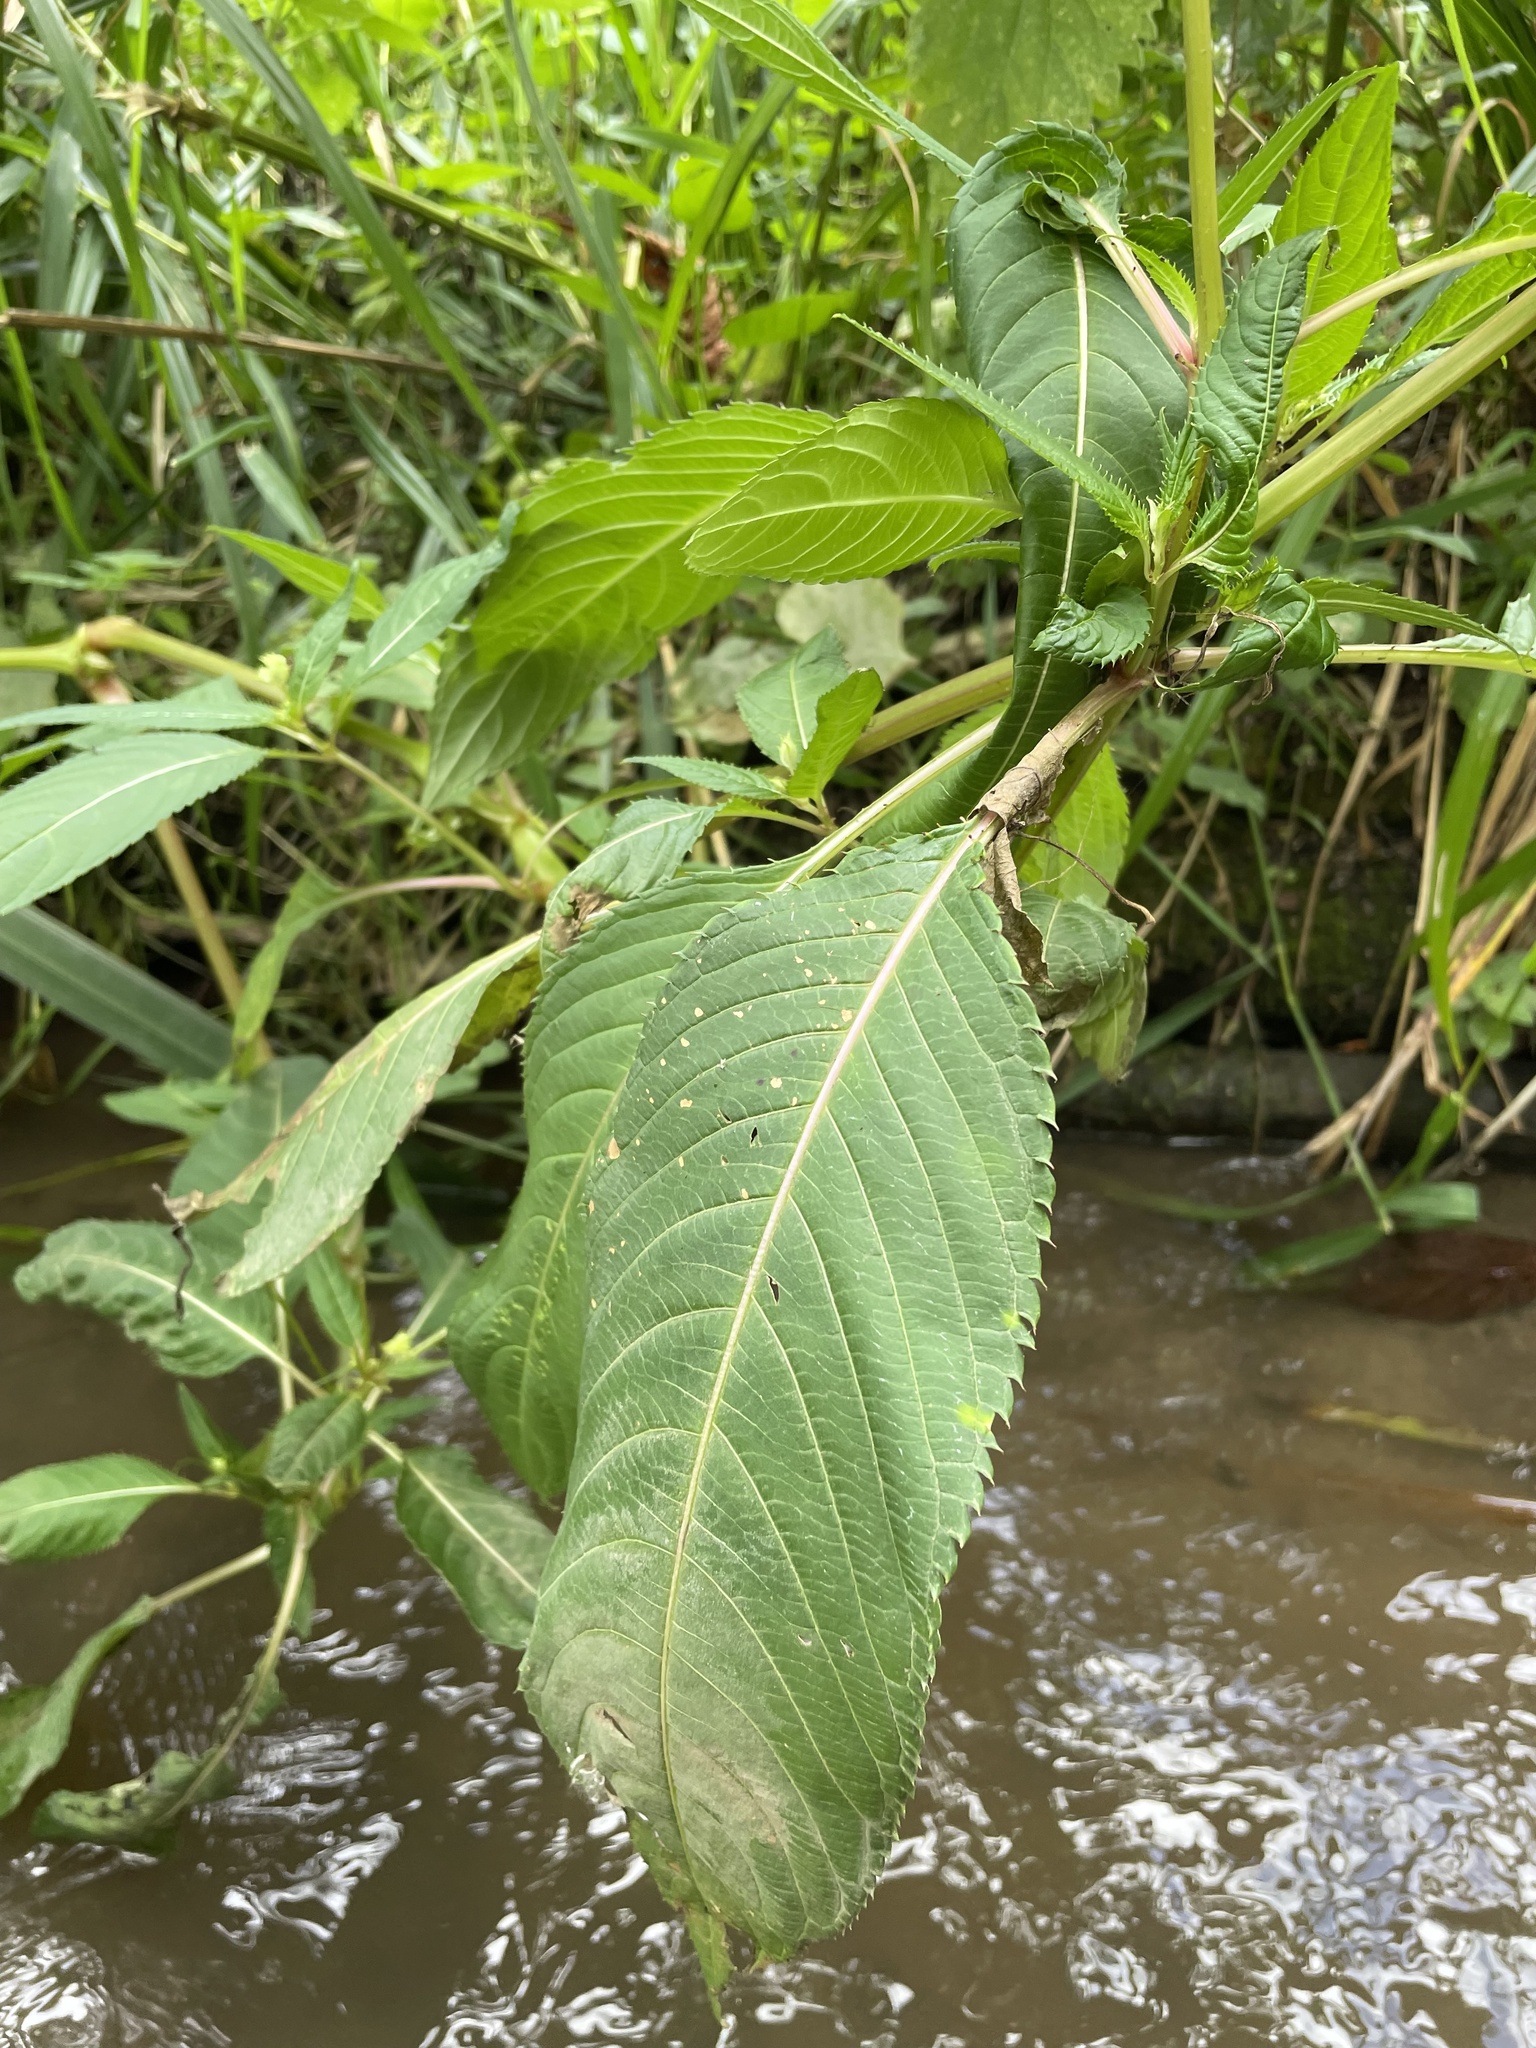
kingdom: Plantae
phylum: Tracheophyta
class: Magnoliopsida
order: Ericales
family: Balsaminaceae
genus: Impatiens
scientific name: Impatiens glandulifera
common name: Himalayan balsam
